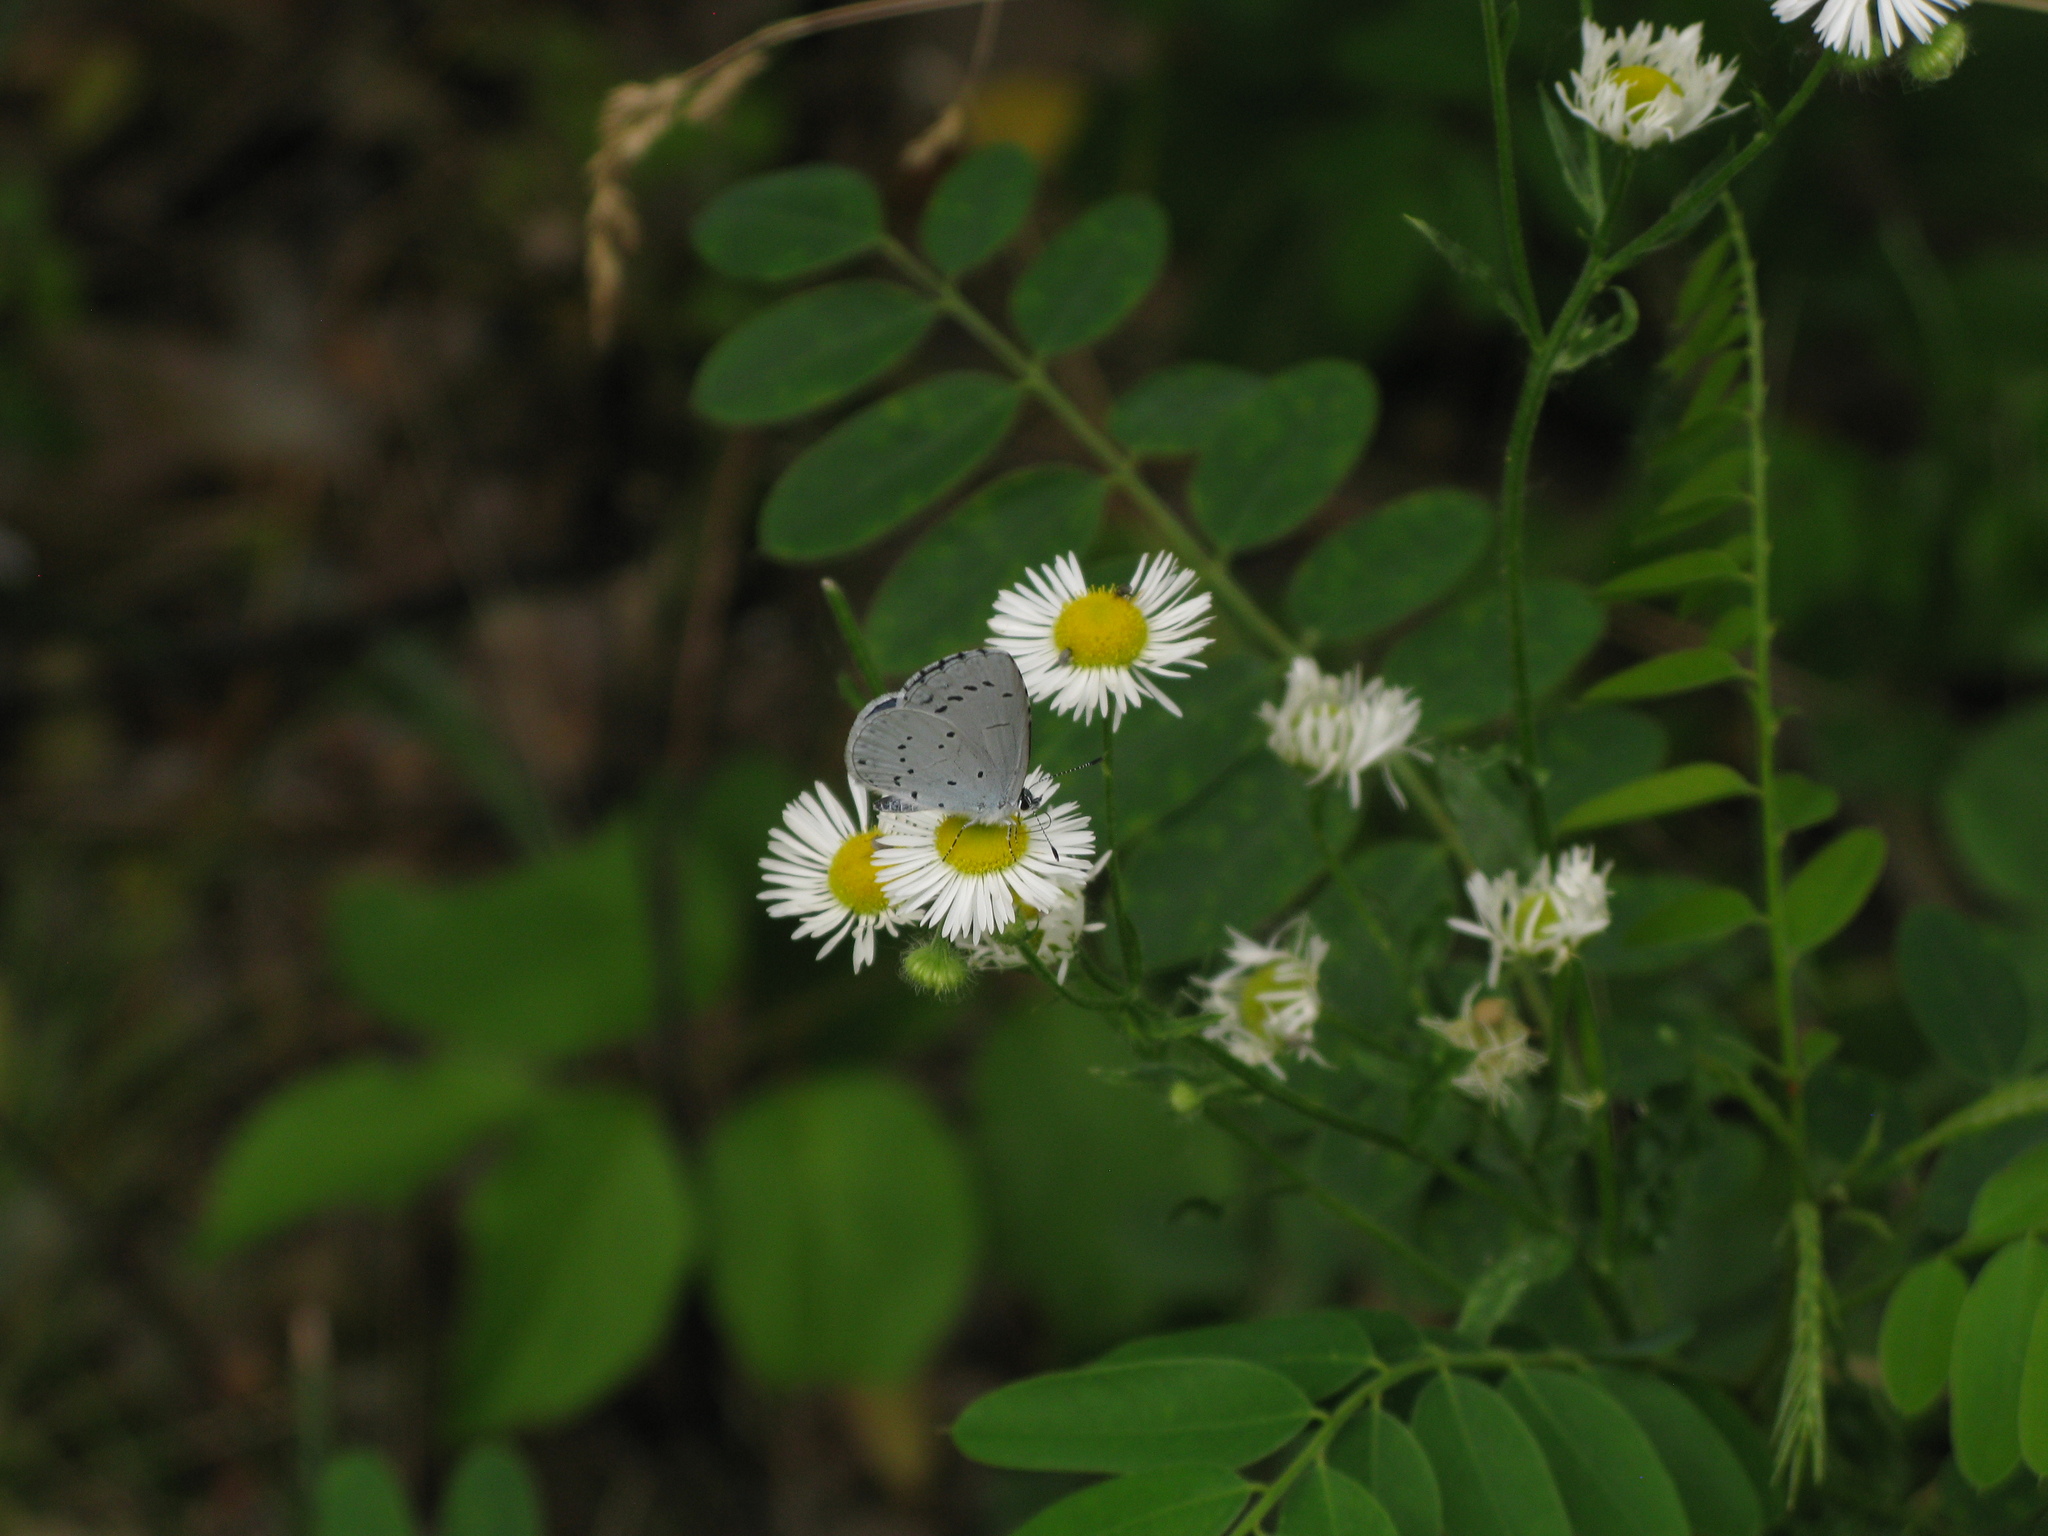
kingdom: Animalia
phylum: Arthropoda
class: Insecta
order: Lepidoptera
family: Lycaenidae
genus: Celastrina
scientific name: Celastrina argiolus
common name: Holly blue
